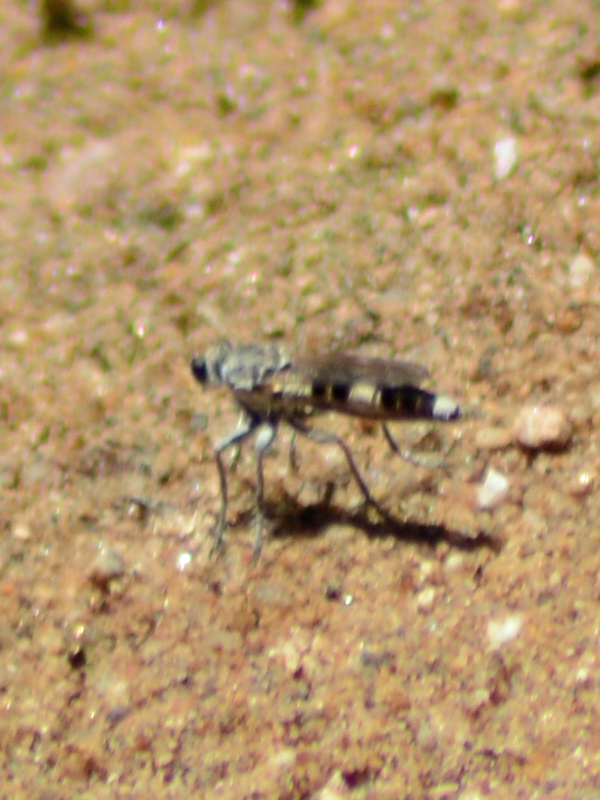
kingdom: Animalia
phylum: Arthropoda
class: Insecta
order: Diptera
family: Asilidae
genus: Stichopogon
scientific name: Stichopogon trifasciatus
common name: Three-banded robber fly
